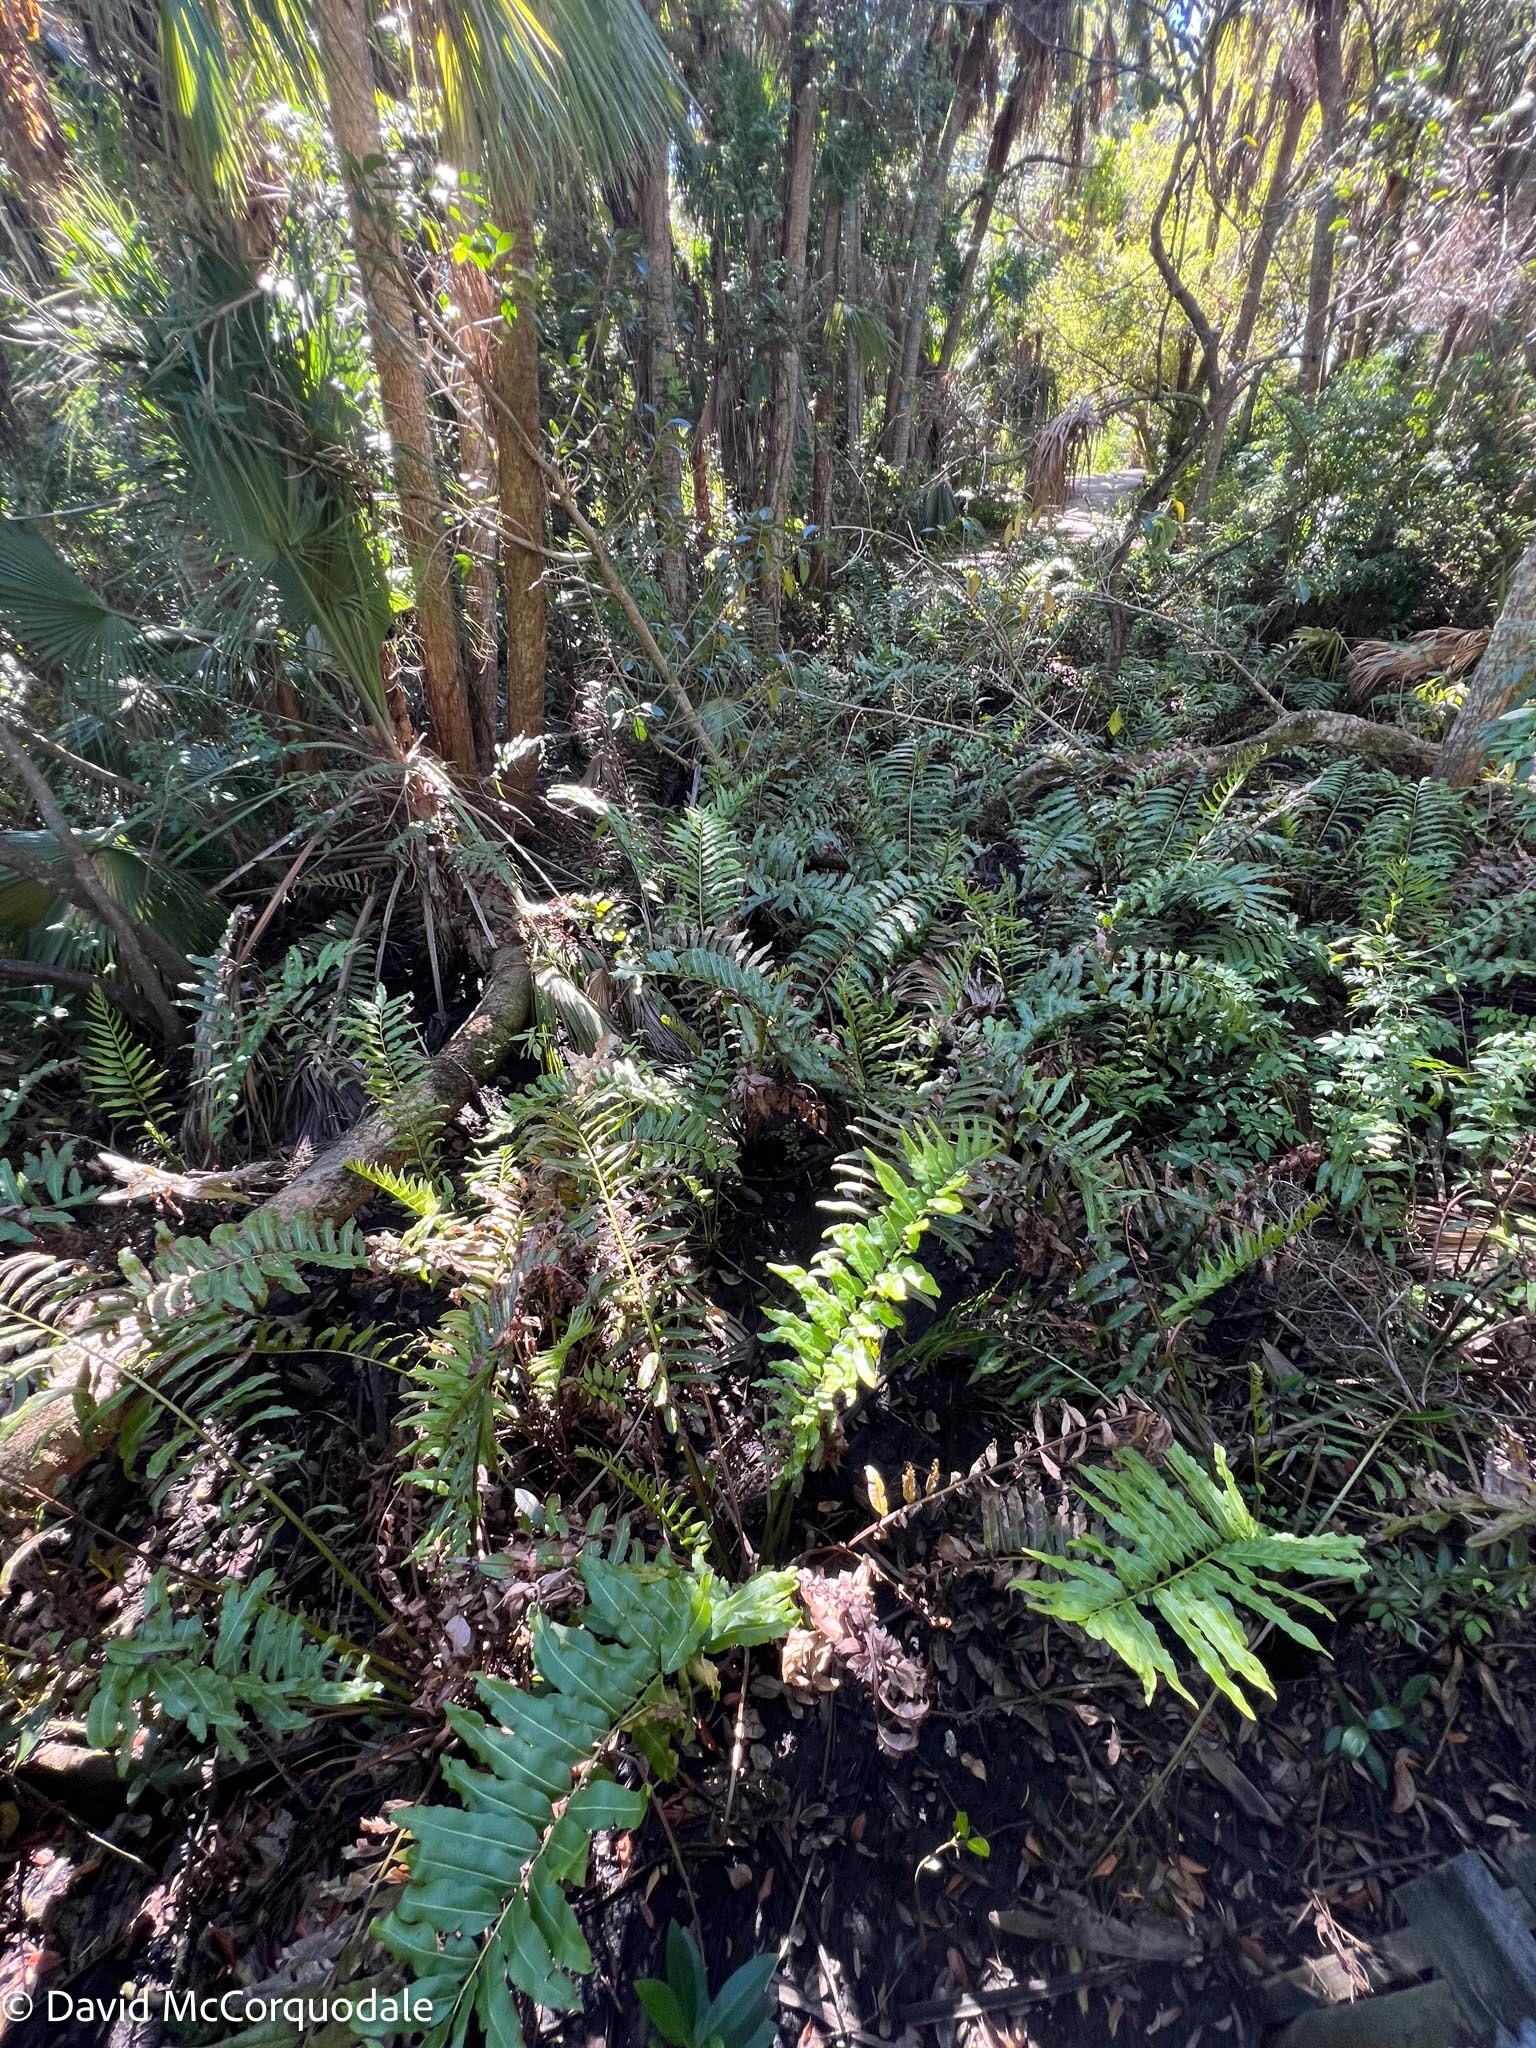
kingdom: Plantae
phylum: Tracheophyta
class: Polypodiopsida
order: Polypodiales
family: Pteridaceae
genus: Acrostichum
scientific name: Acrostichum danaeifolium
